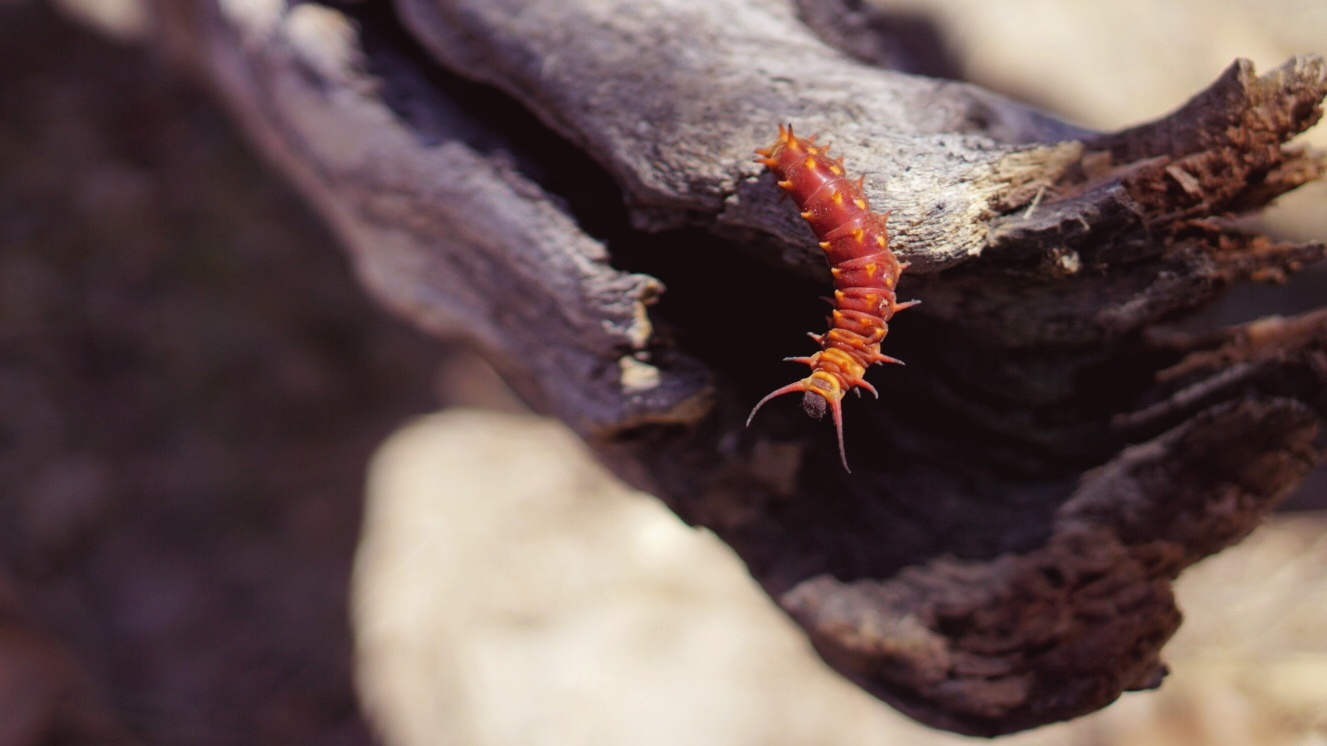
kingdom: Animalia
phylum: Arthropoda
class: Insecta
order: Lepidoptera
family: Papilionidae
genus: Battus
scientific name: Battus philenor
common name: Pipevine swallowtail
